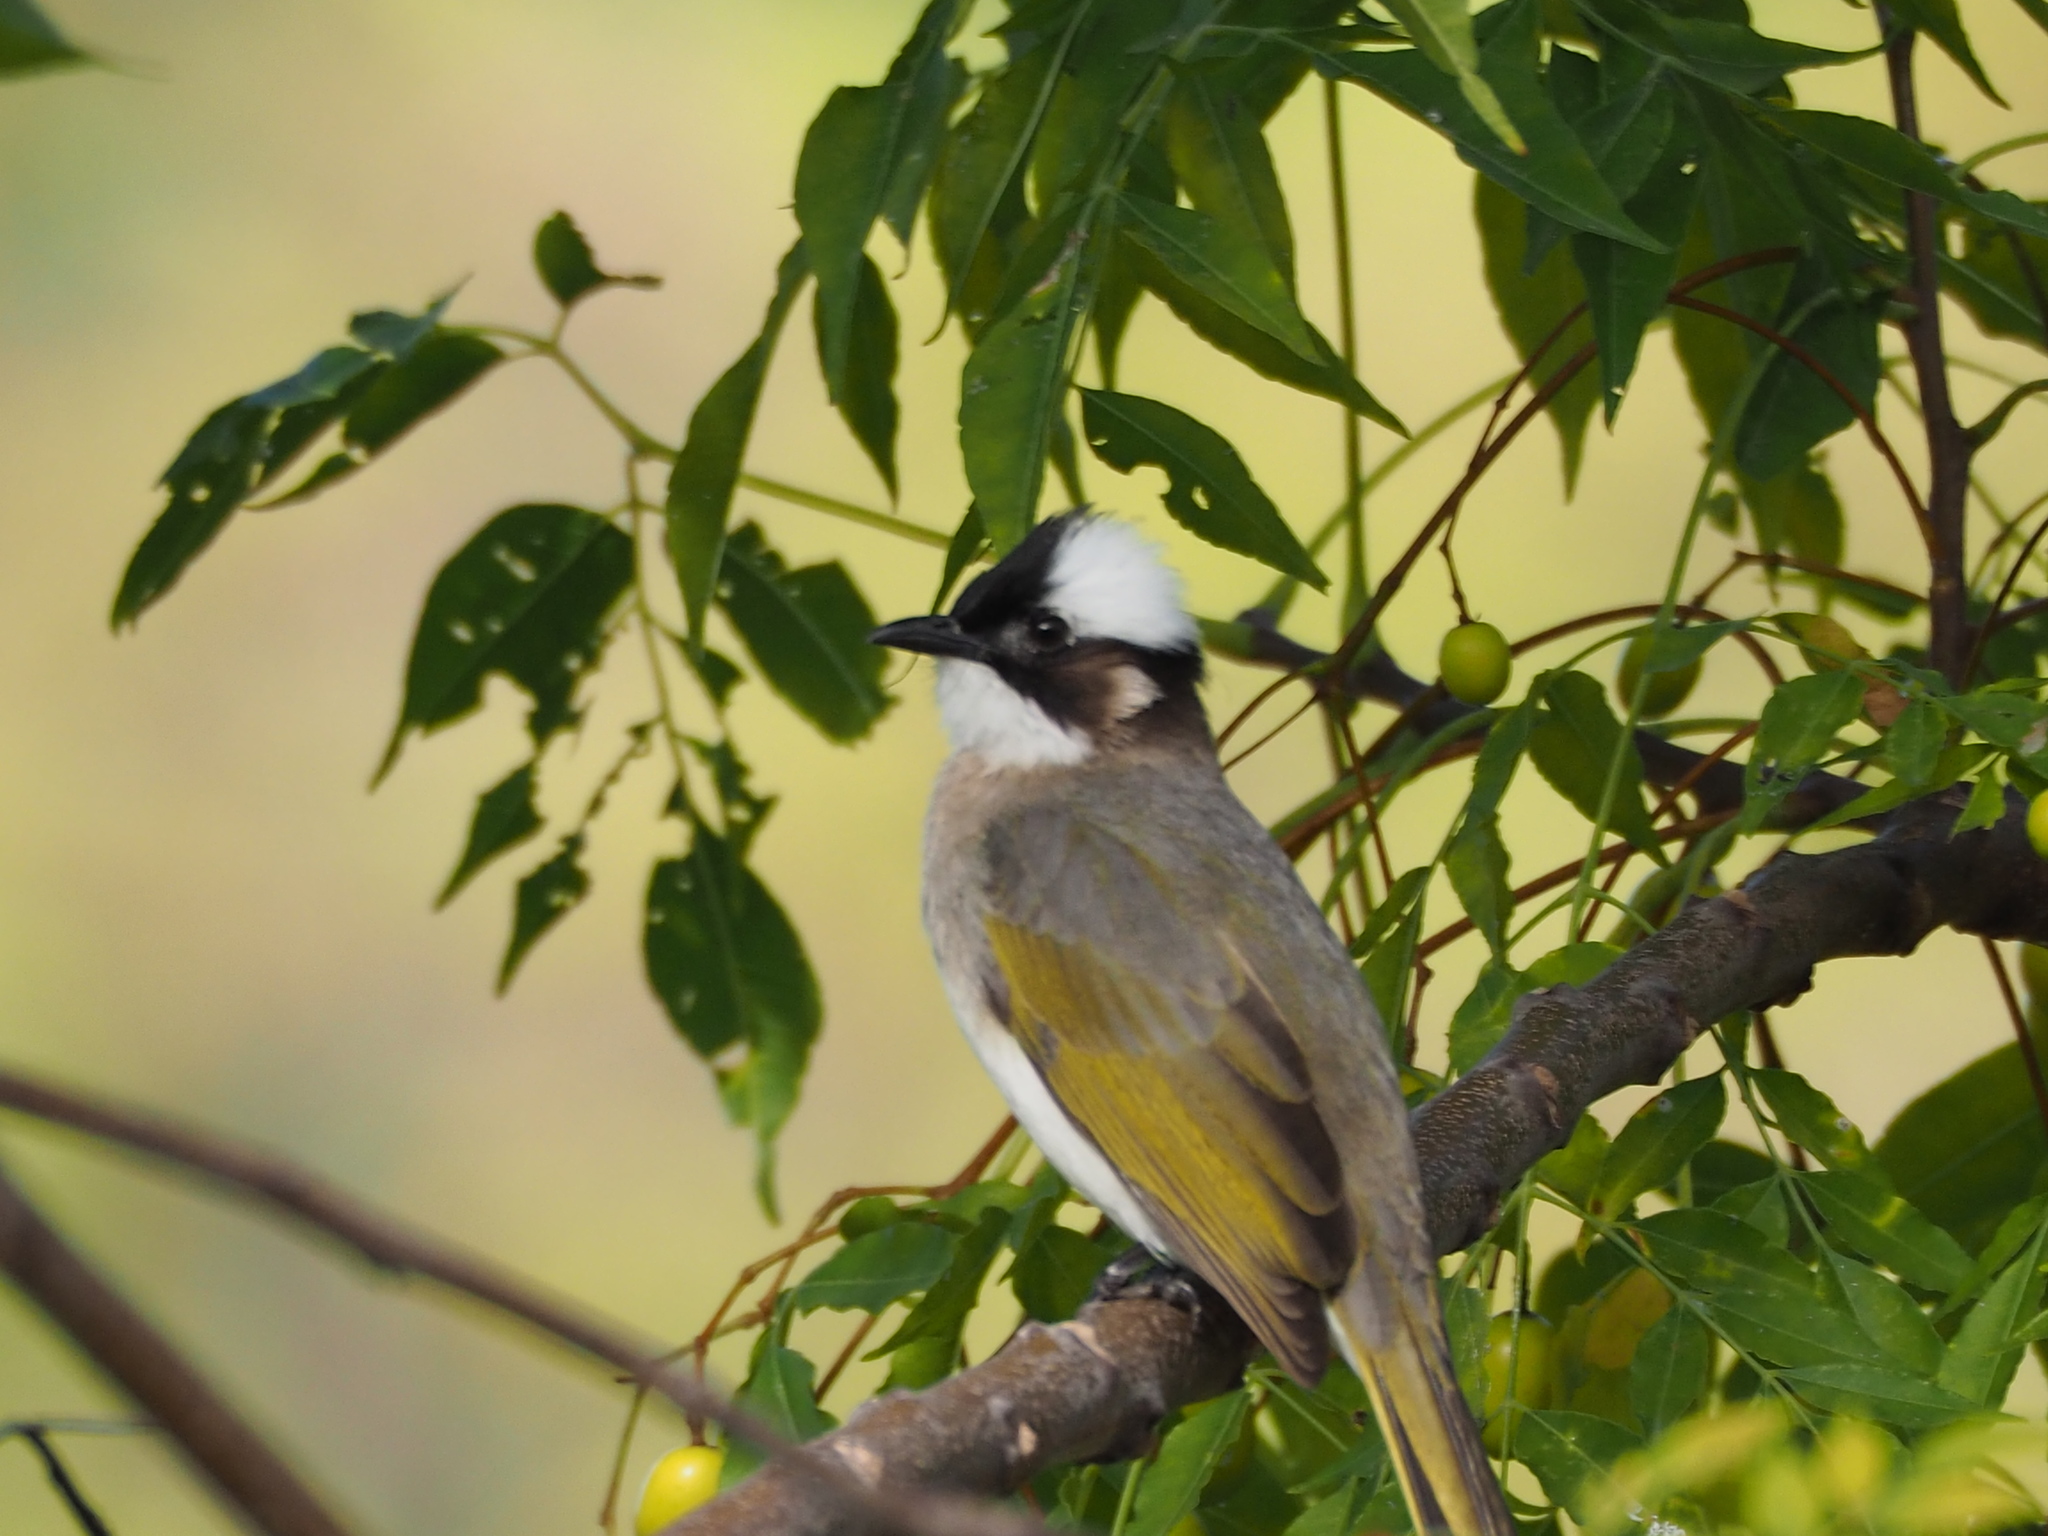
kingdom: Animalia
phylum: Chordata
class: Aves
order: Passeriformes
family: Pycnonotidae
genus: Pycnonotus
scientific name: Pycnonotus sinensis
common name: Light-vented bulbul
